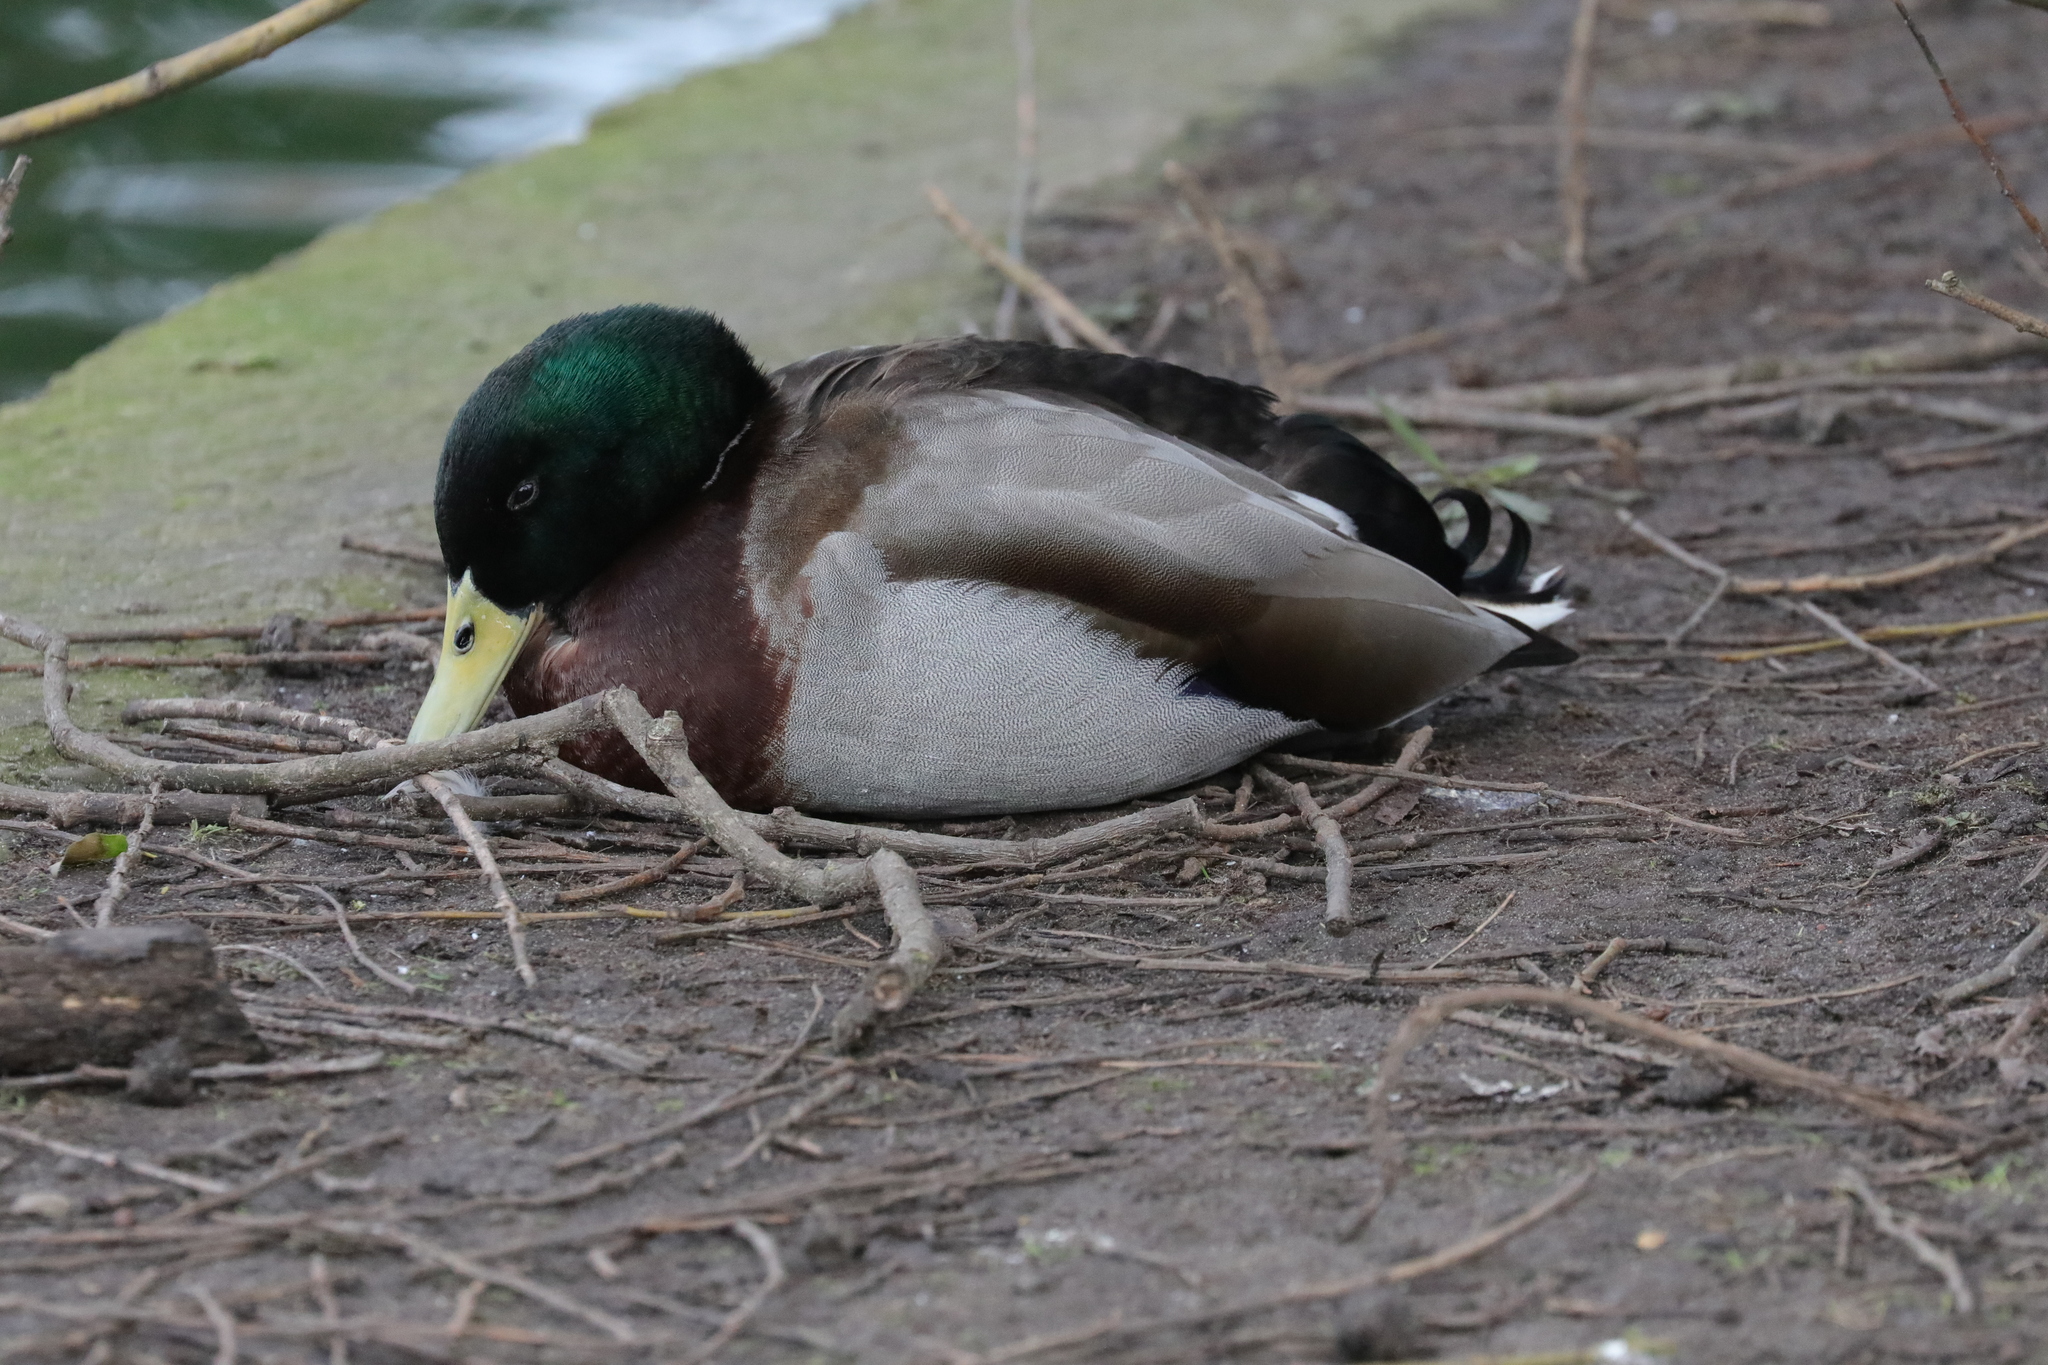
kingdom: Animalia
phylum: Chordata
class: Aves
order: Anseriformes
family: Anatidae
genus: Anas
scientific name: Anas platyrhynchos
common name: Mallard
